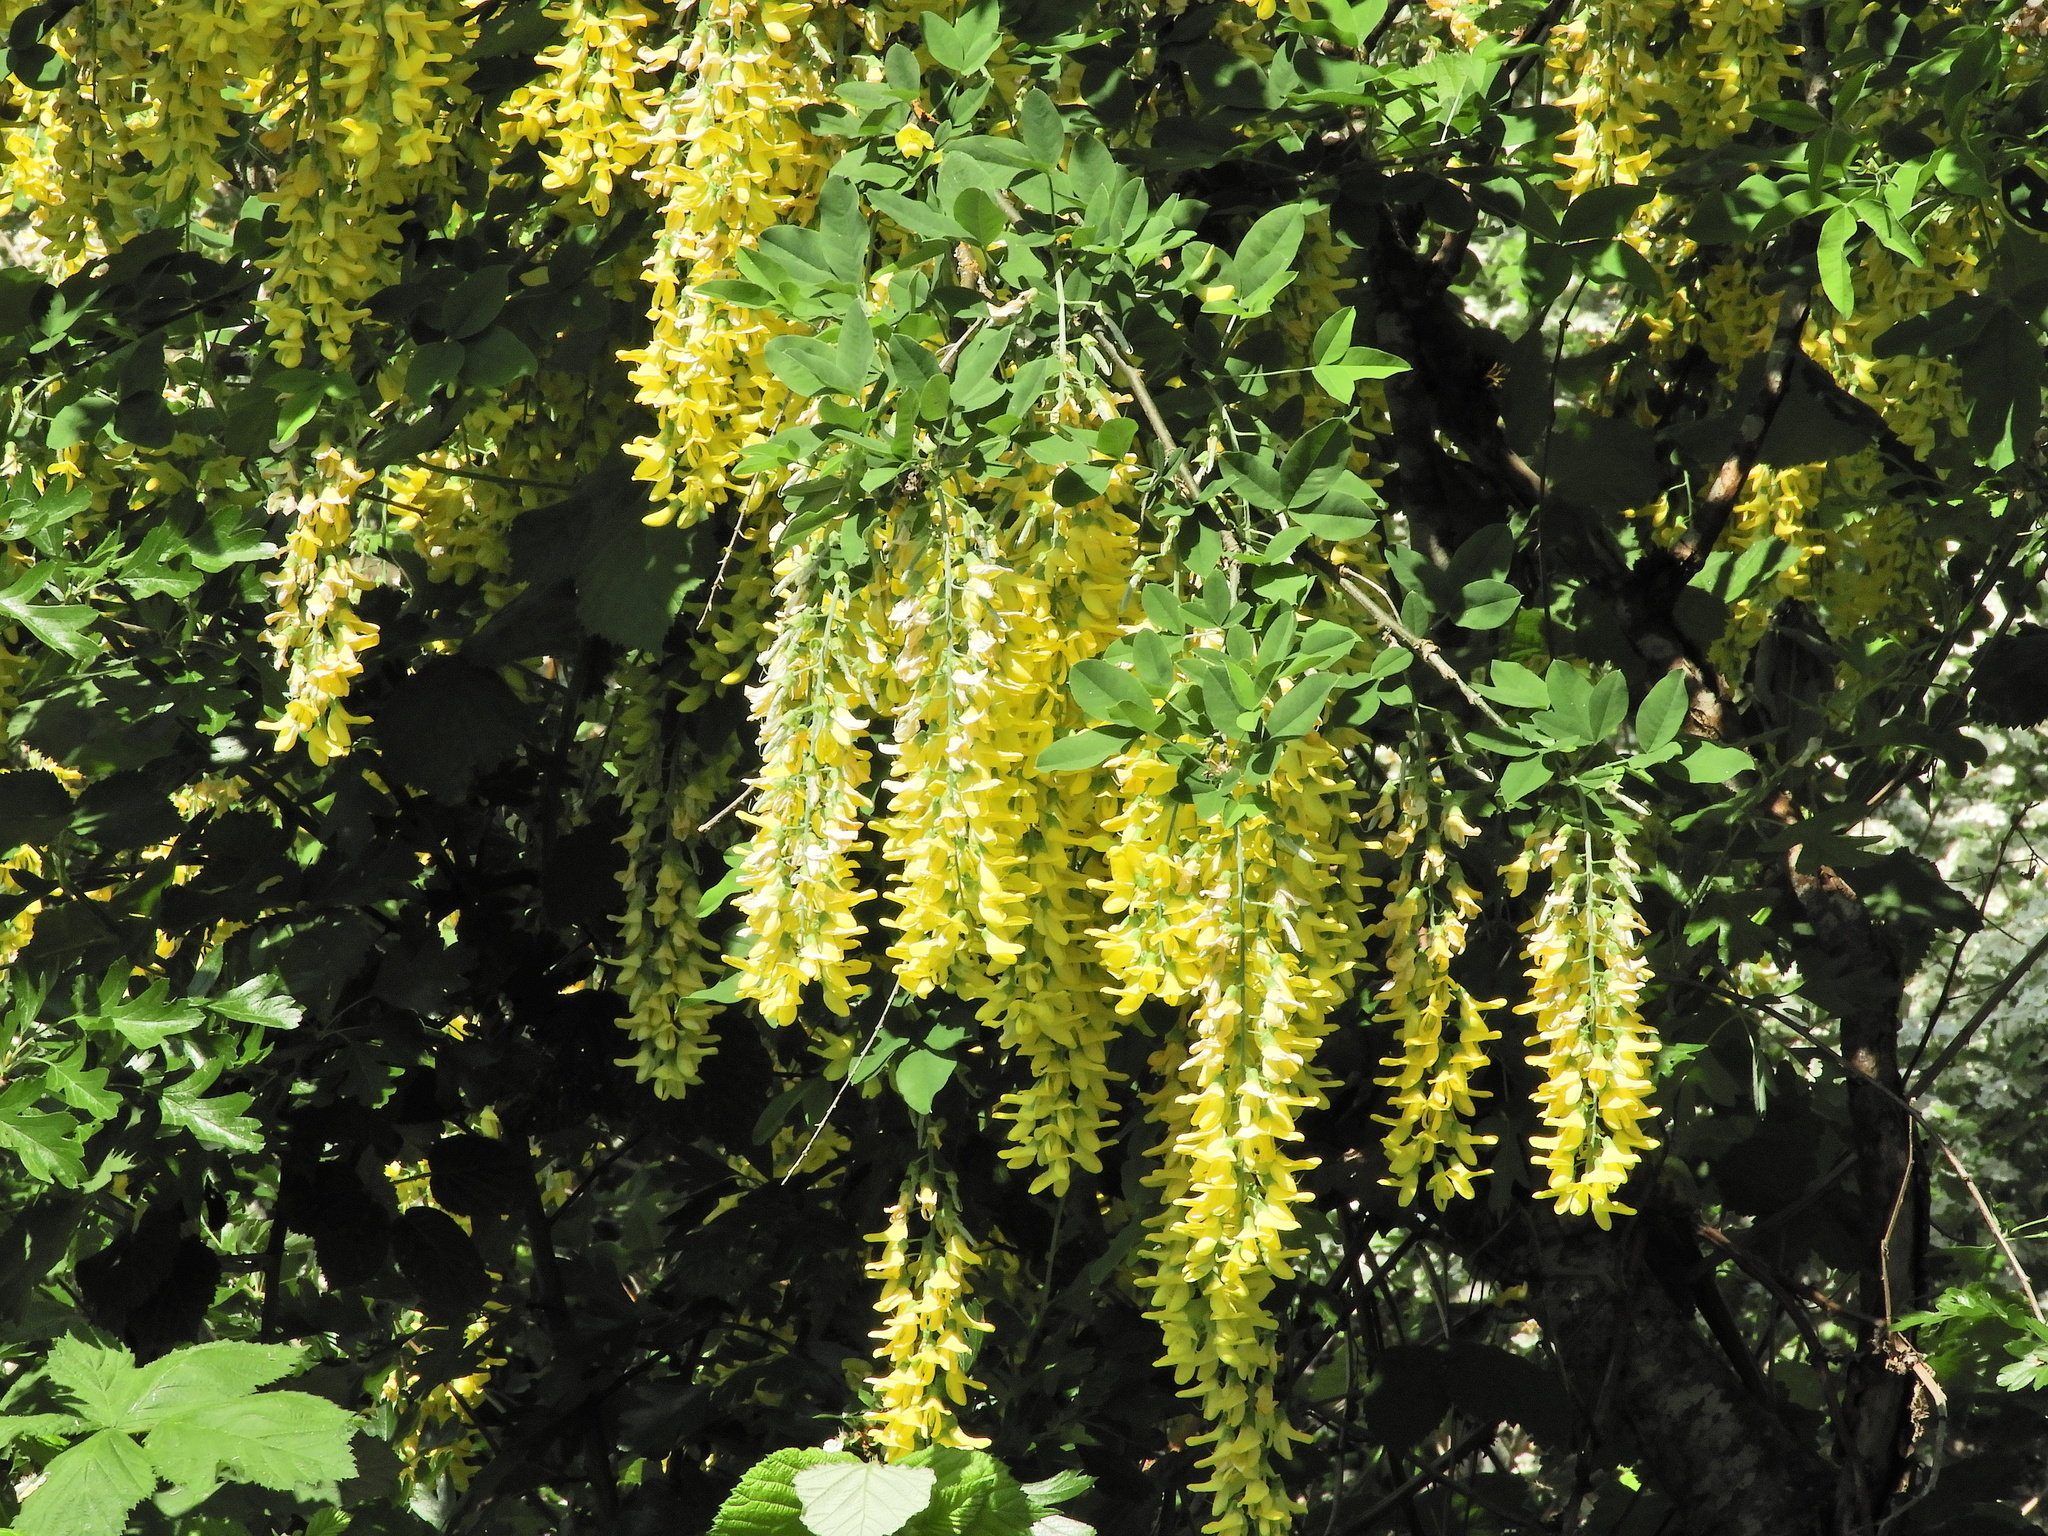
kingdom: Plantae
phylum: Tracheophyta
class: Magnoliopsida
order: Fabales
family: Fabaceae
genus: Laburnum
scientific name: Laburnum anagyroides
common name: Laburnum
